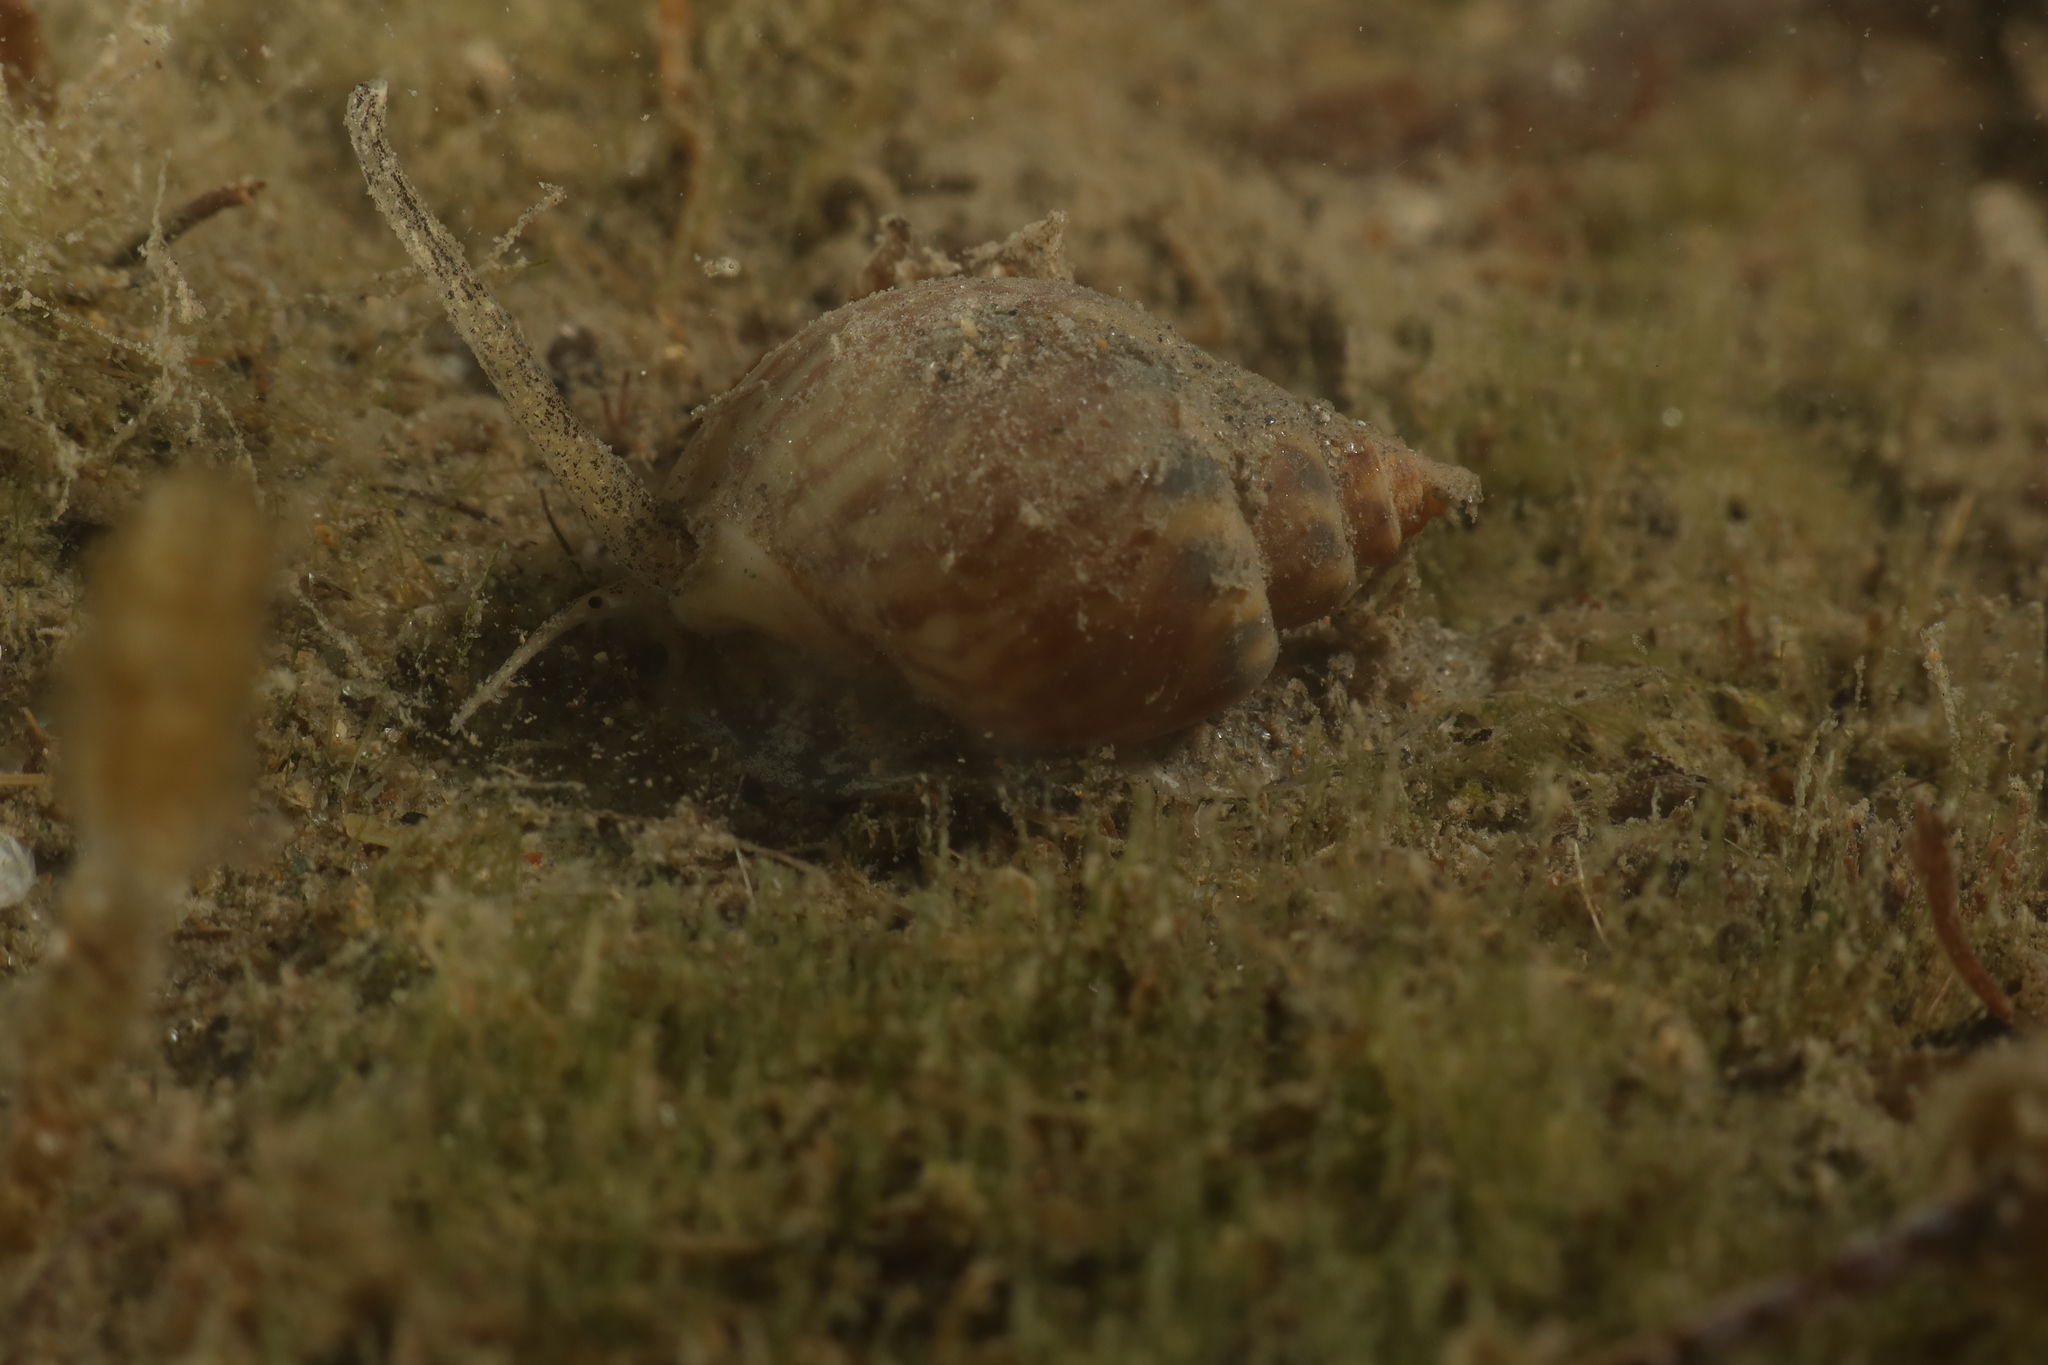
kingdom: Animalia
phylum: Mollusca
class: Gastropoda
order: Neogastropoda
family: Nassariidae
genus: Tritia
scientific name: Tritia mutabilis
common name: Mutable nassa
